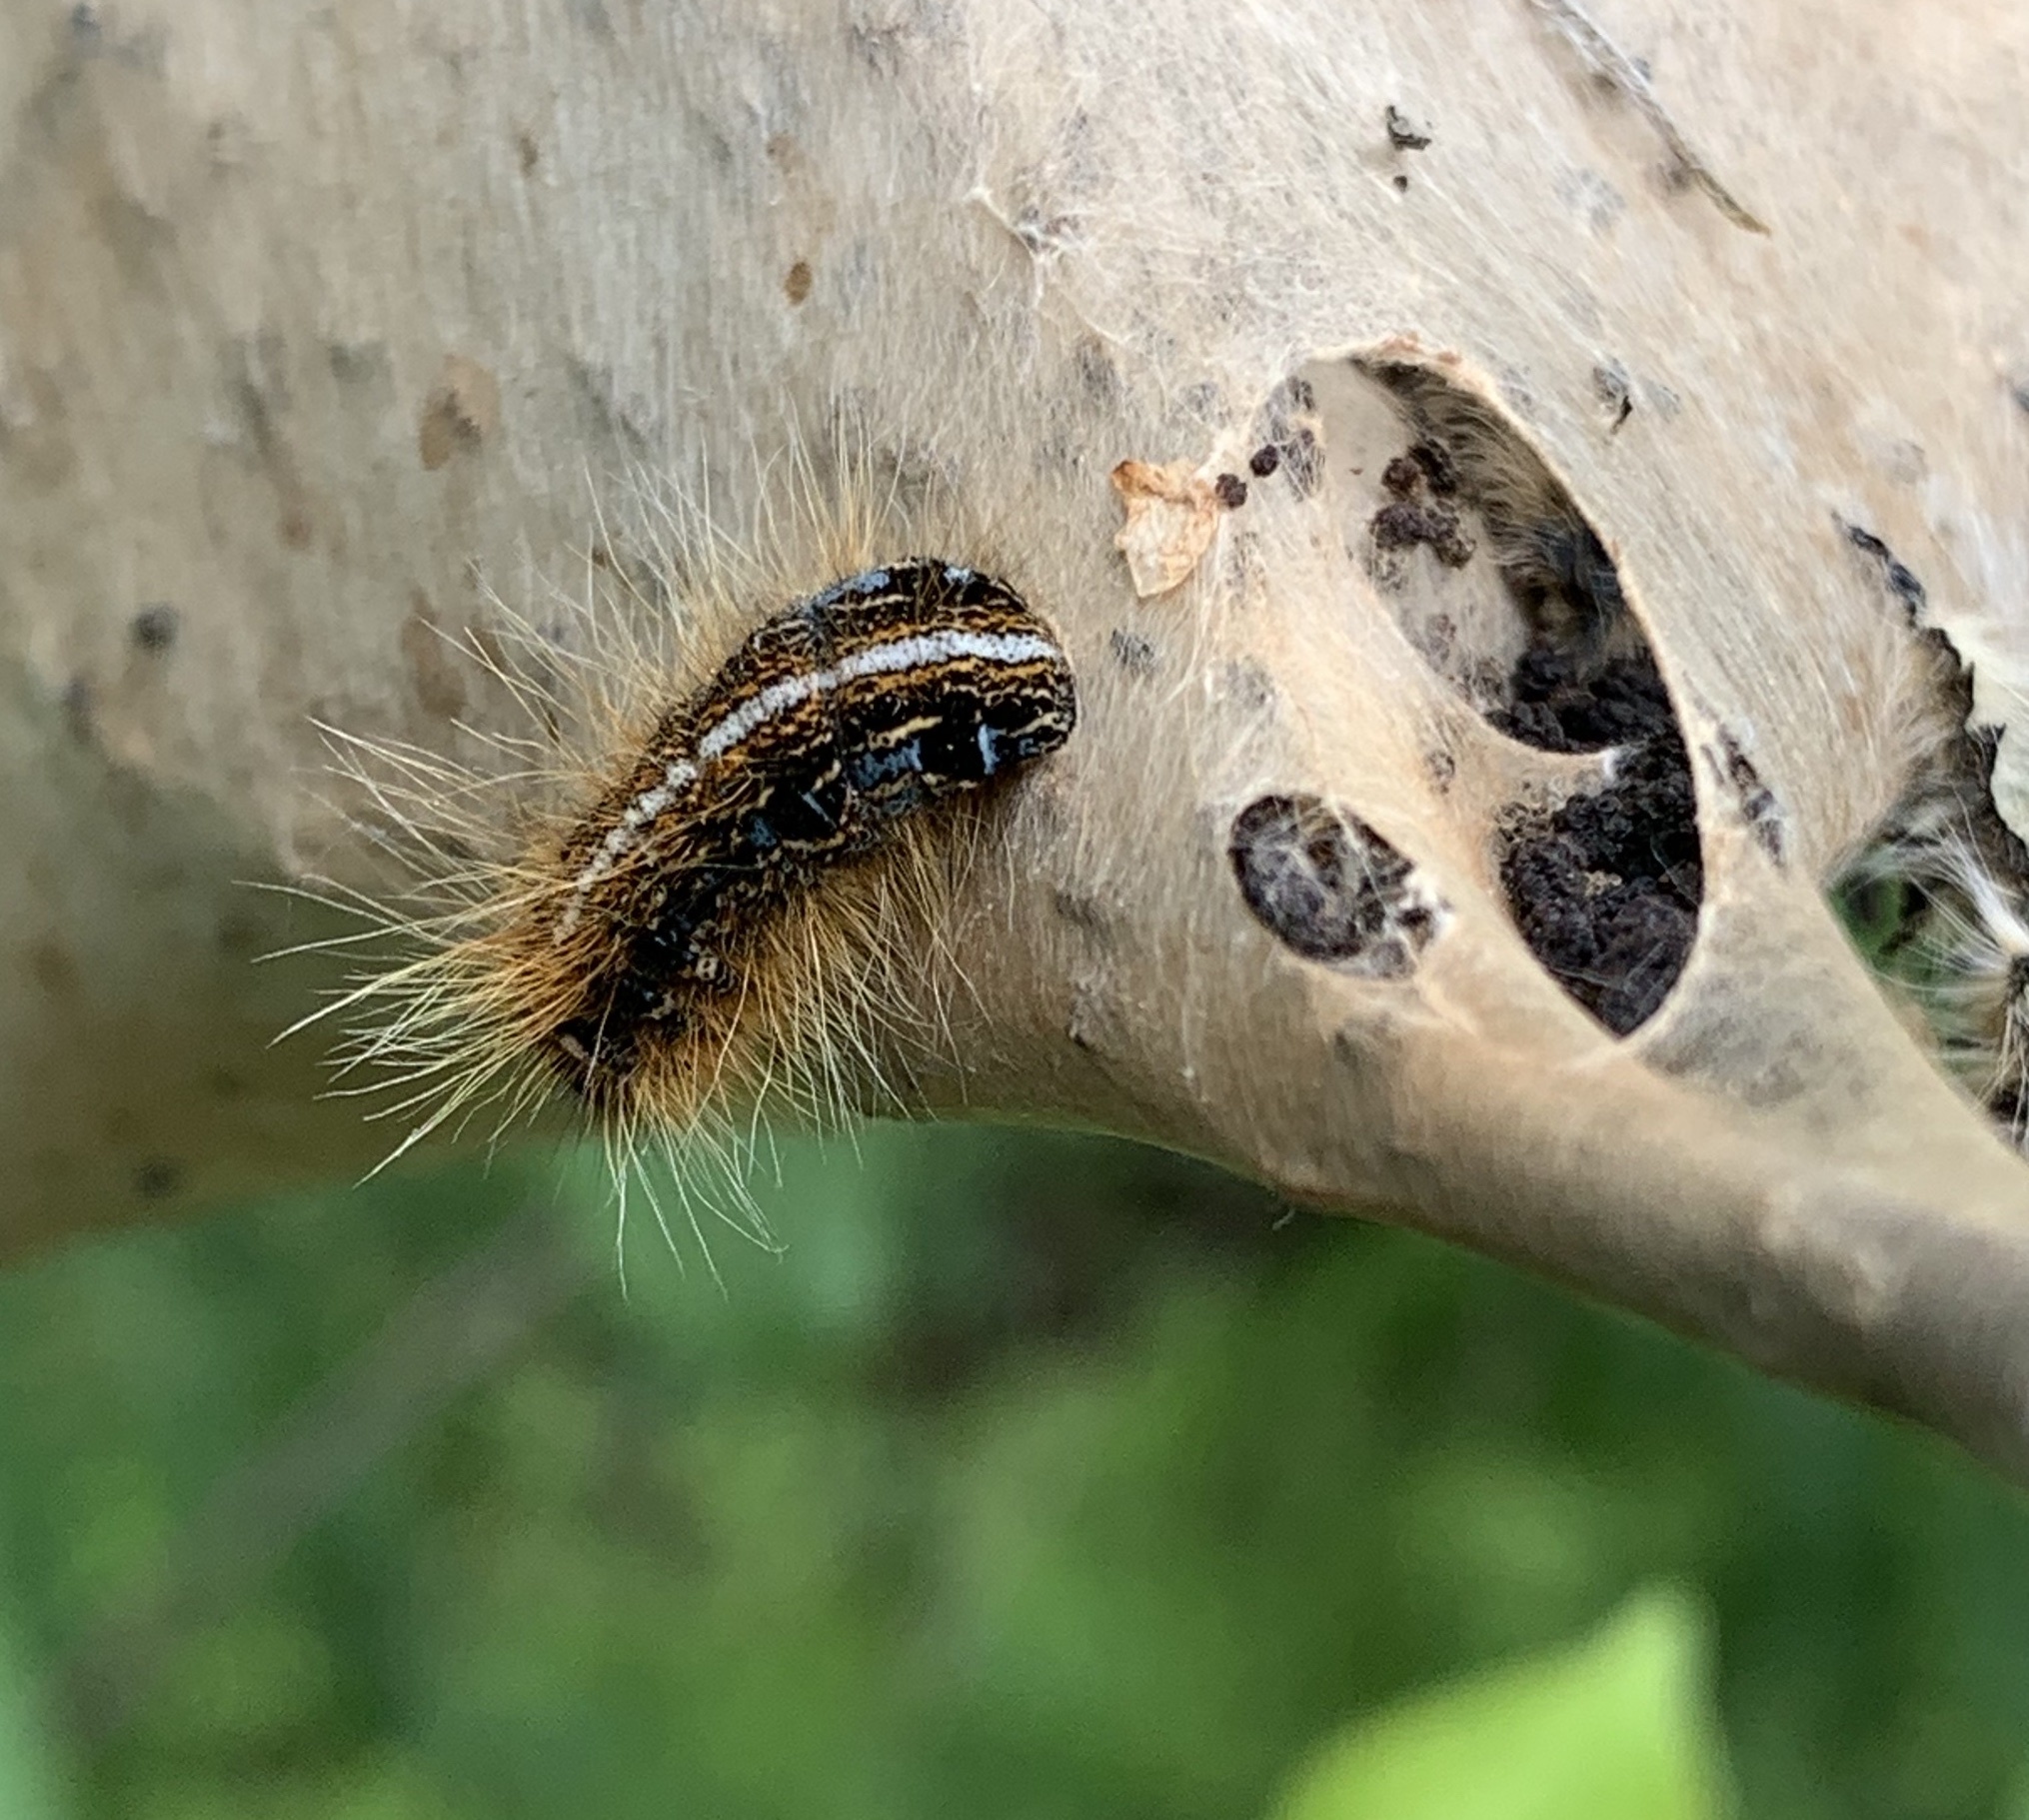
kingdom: Animalia
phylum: Arthropoda
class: Insecta
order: Lepidoptera
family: Lasiocampidae
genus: Malacosoma
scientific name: Malacosoma americana
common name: Eastern tent caterpillar moth
